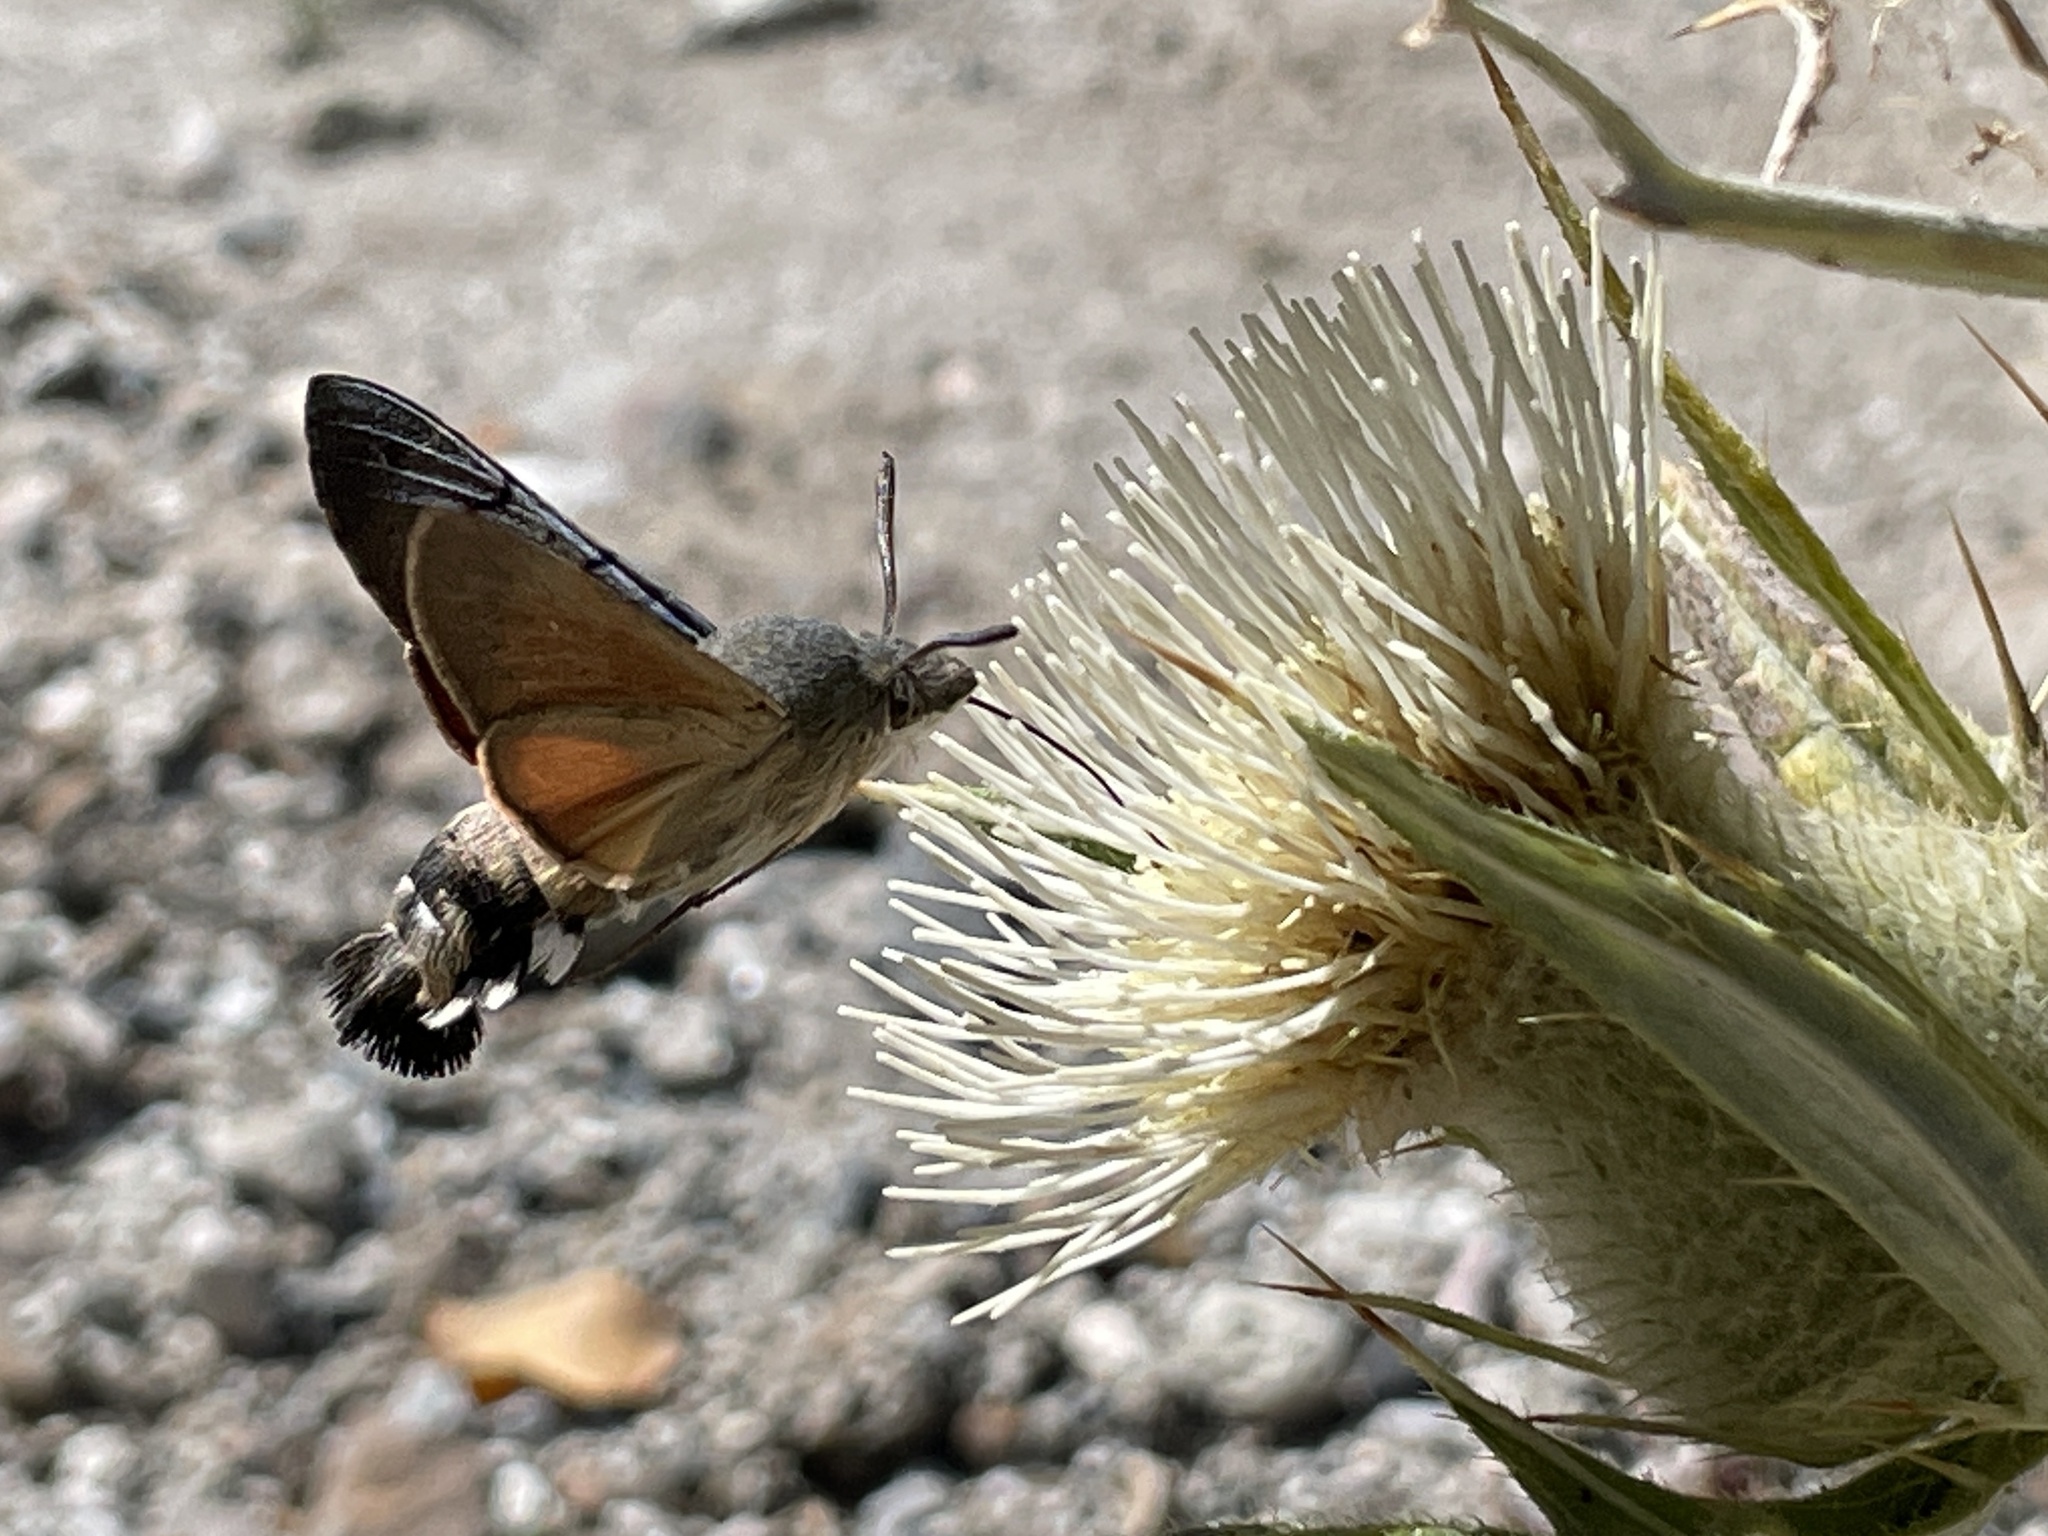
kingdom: Animalia
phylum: Arthropoda
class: Insecta
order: Lepidoptera
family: Sphingidae
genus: Macroglossum
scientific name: Macroglossum stellatarum
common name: Humming-bird hawk-moth
